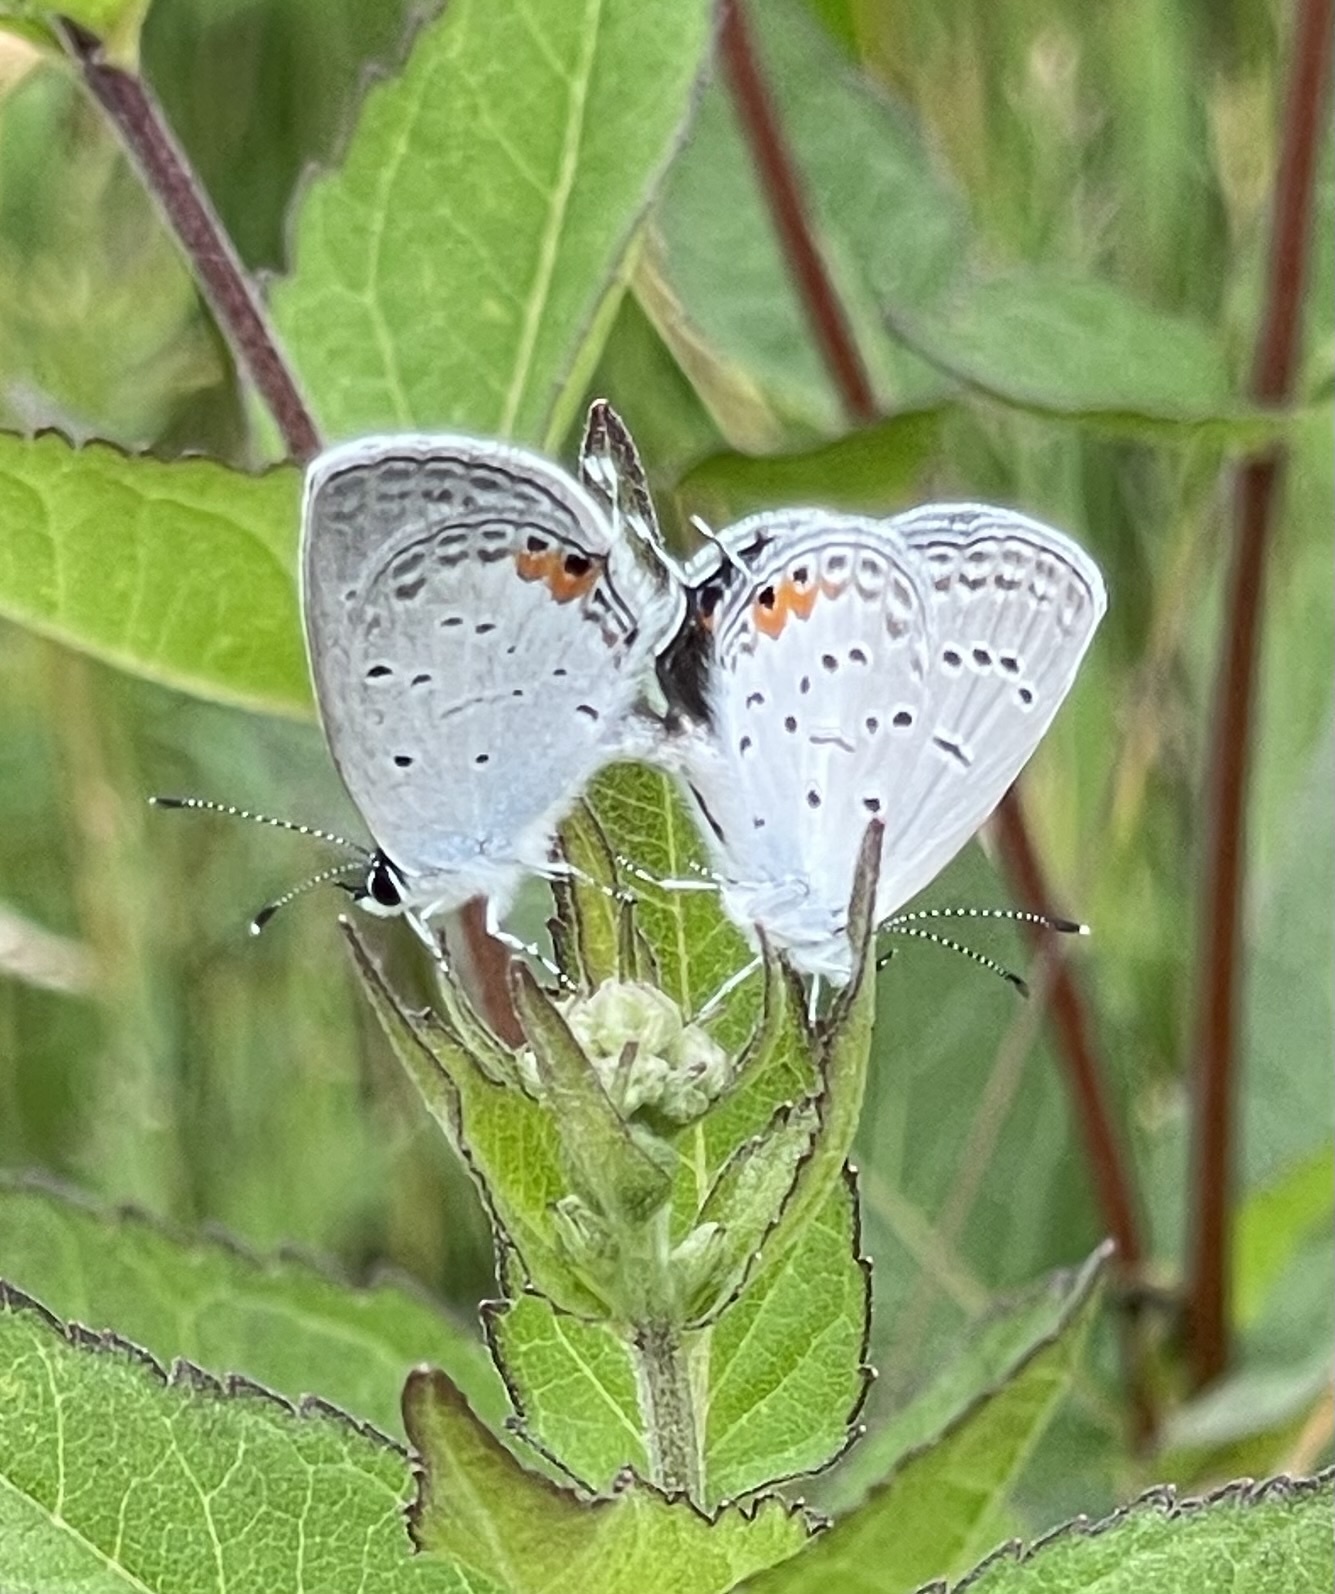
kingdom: Animalia
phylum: Arthropoda
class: Insecta
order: Lepidoptera
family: Lycaenidae
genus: Elkalyce
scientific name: Elkalyce comyntas
